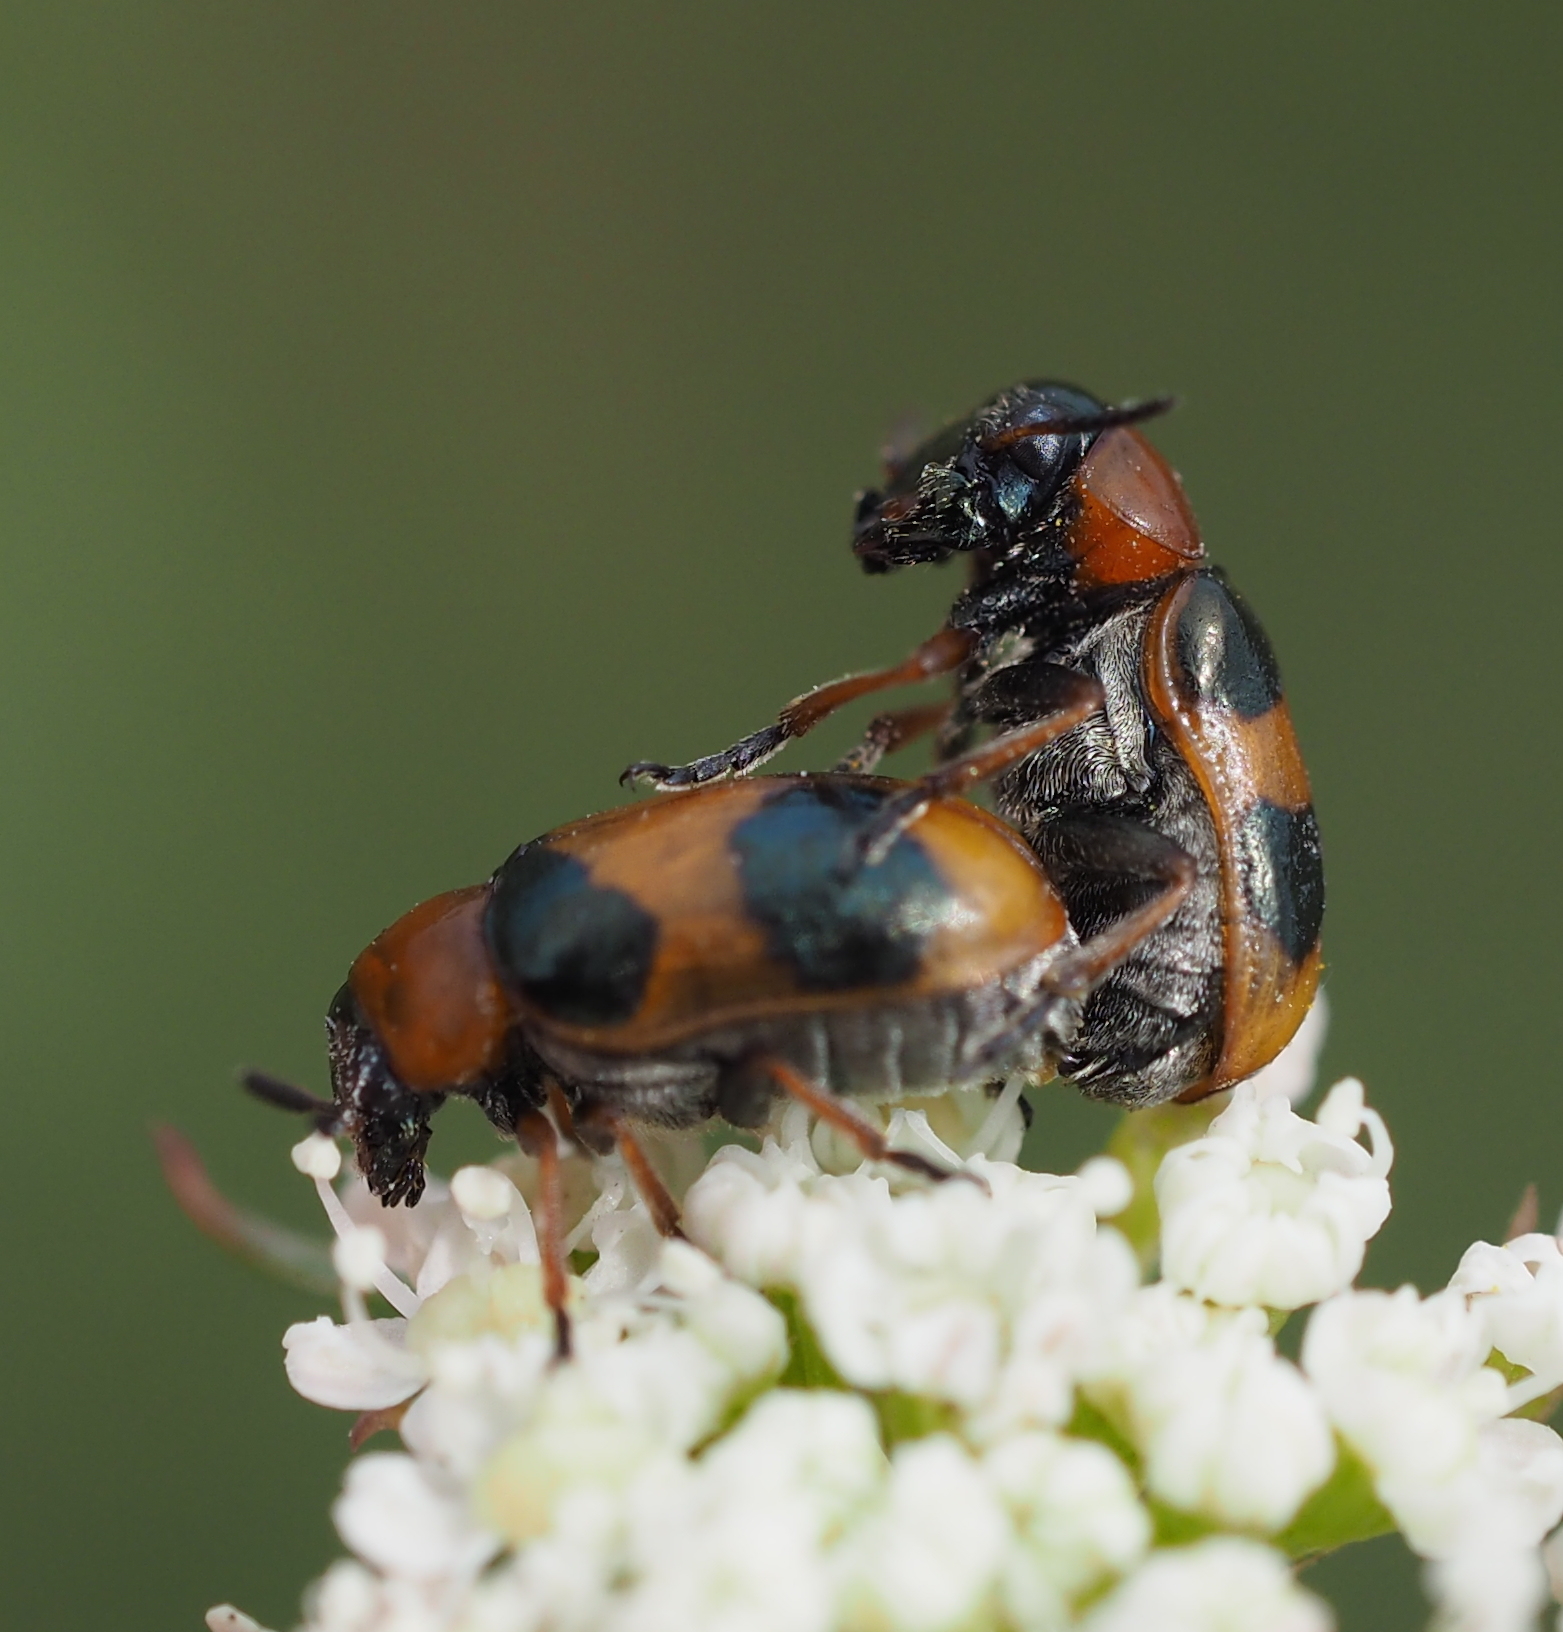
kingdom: Animalia
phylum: Arthropoda
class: Insecta
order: Coleoptera
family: Chrysomelidae
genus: Coptocephala
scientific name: Coptocephala unifasciata
